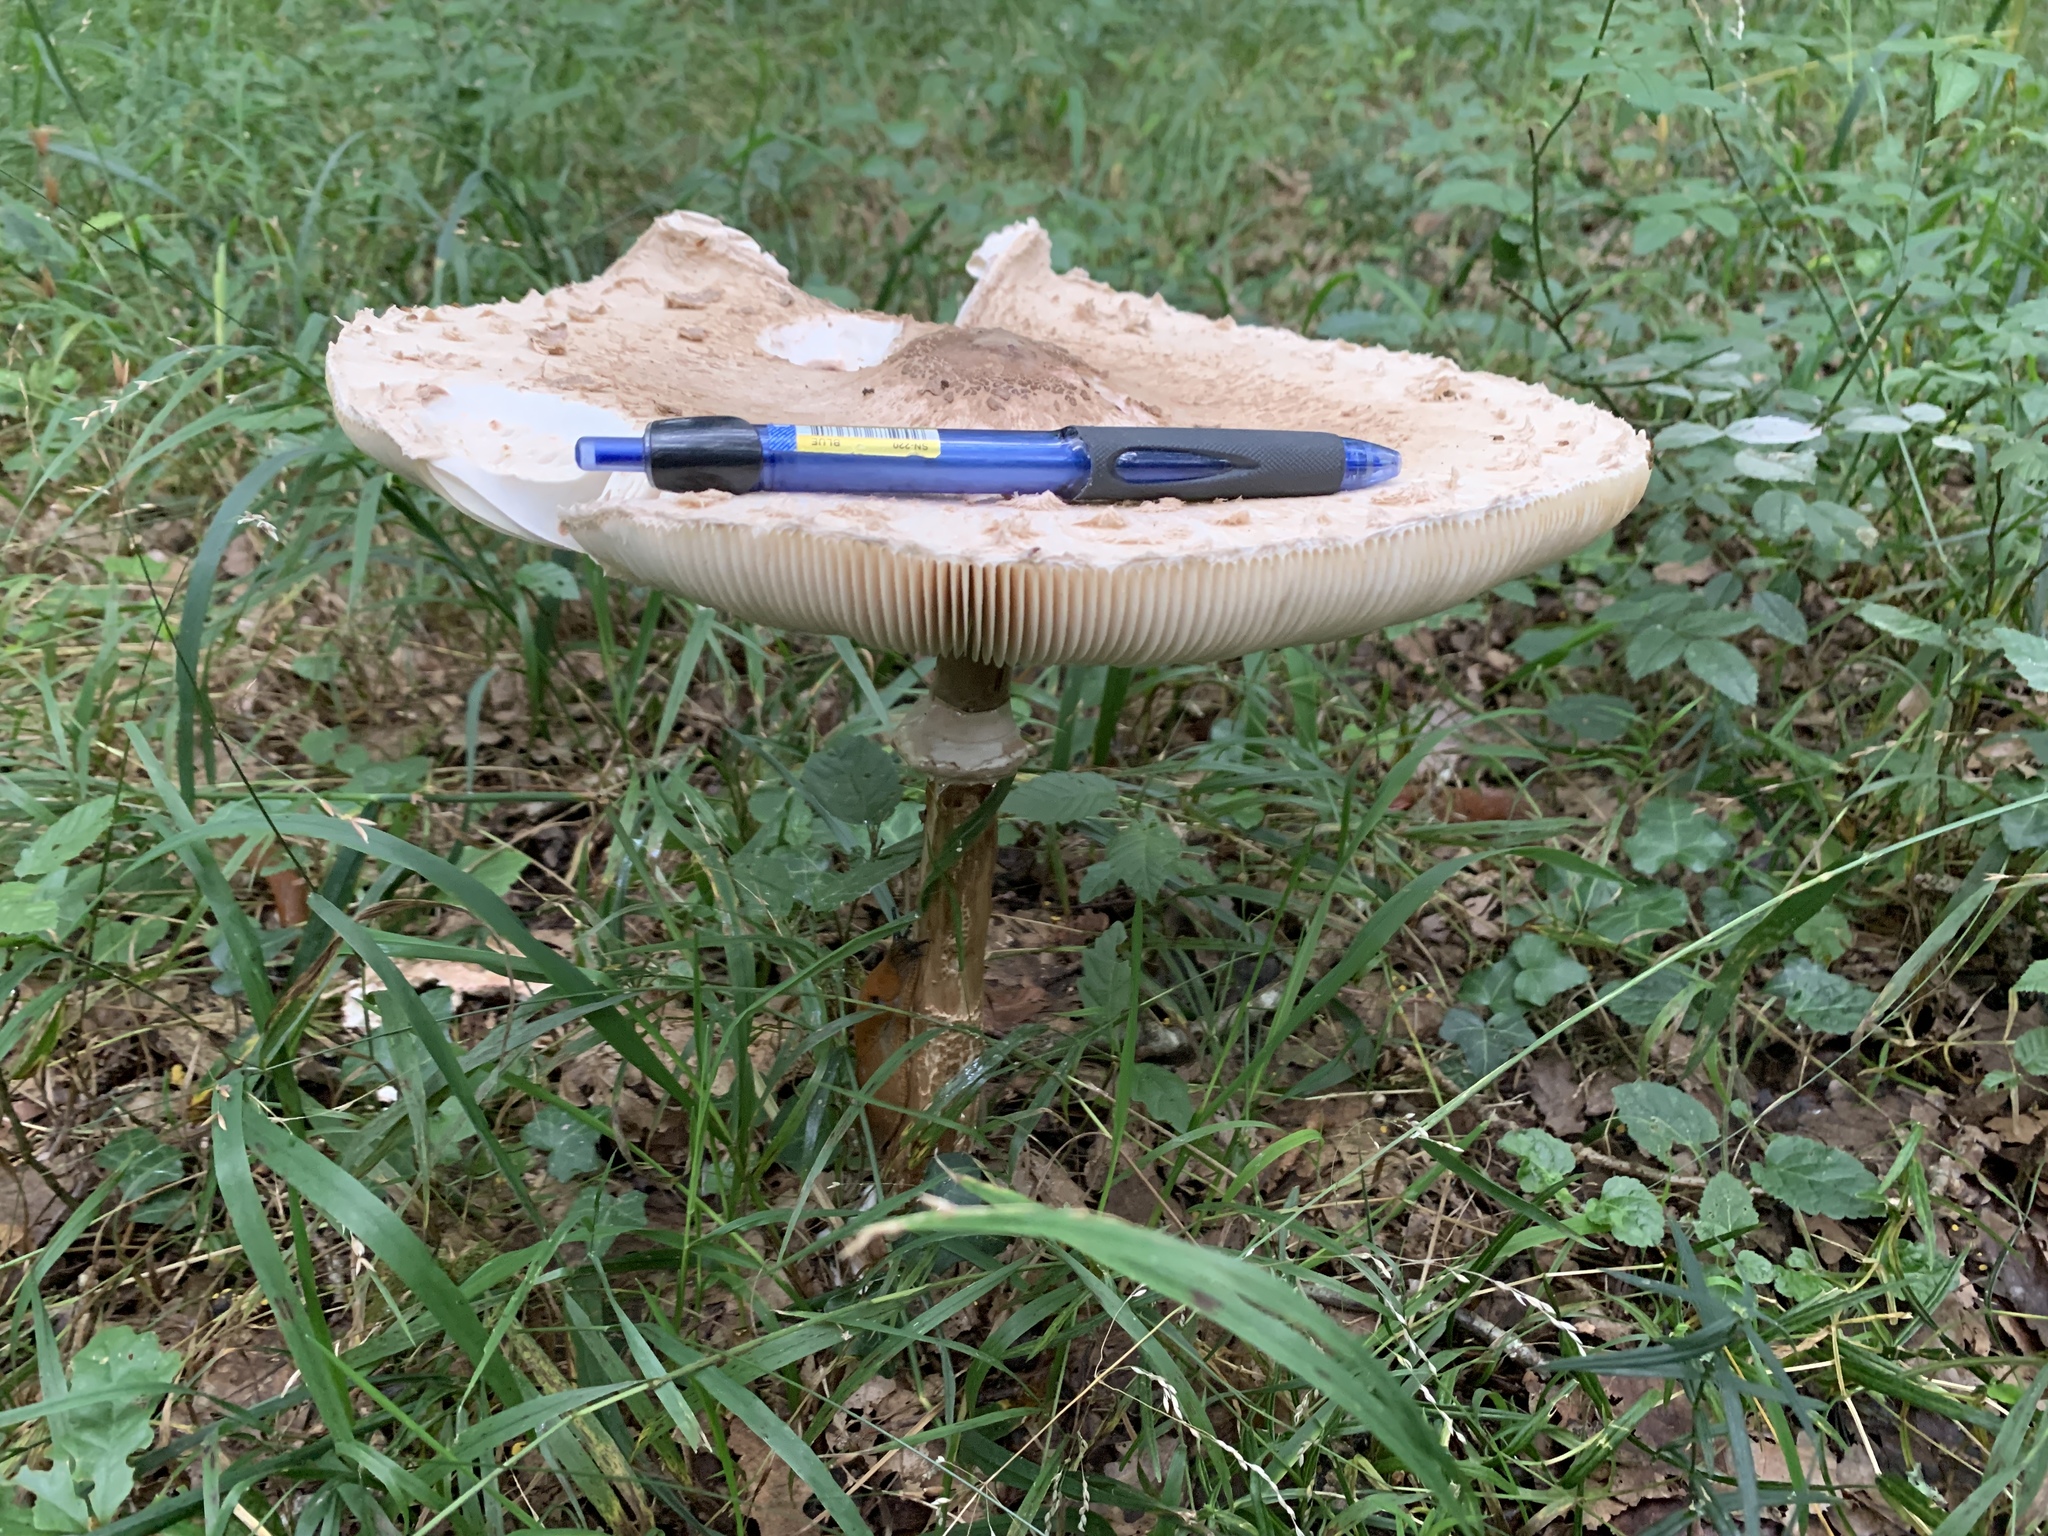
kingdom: Fungi
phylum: Basidiomycota
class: Agaricomycetes
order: Agaricales
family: Agaricaceae
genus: Macrolepiota
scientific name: Macrolepiota procera
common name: Parasol
